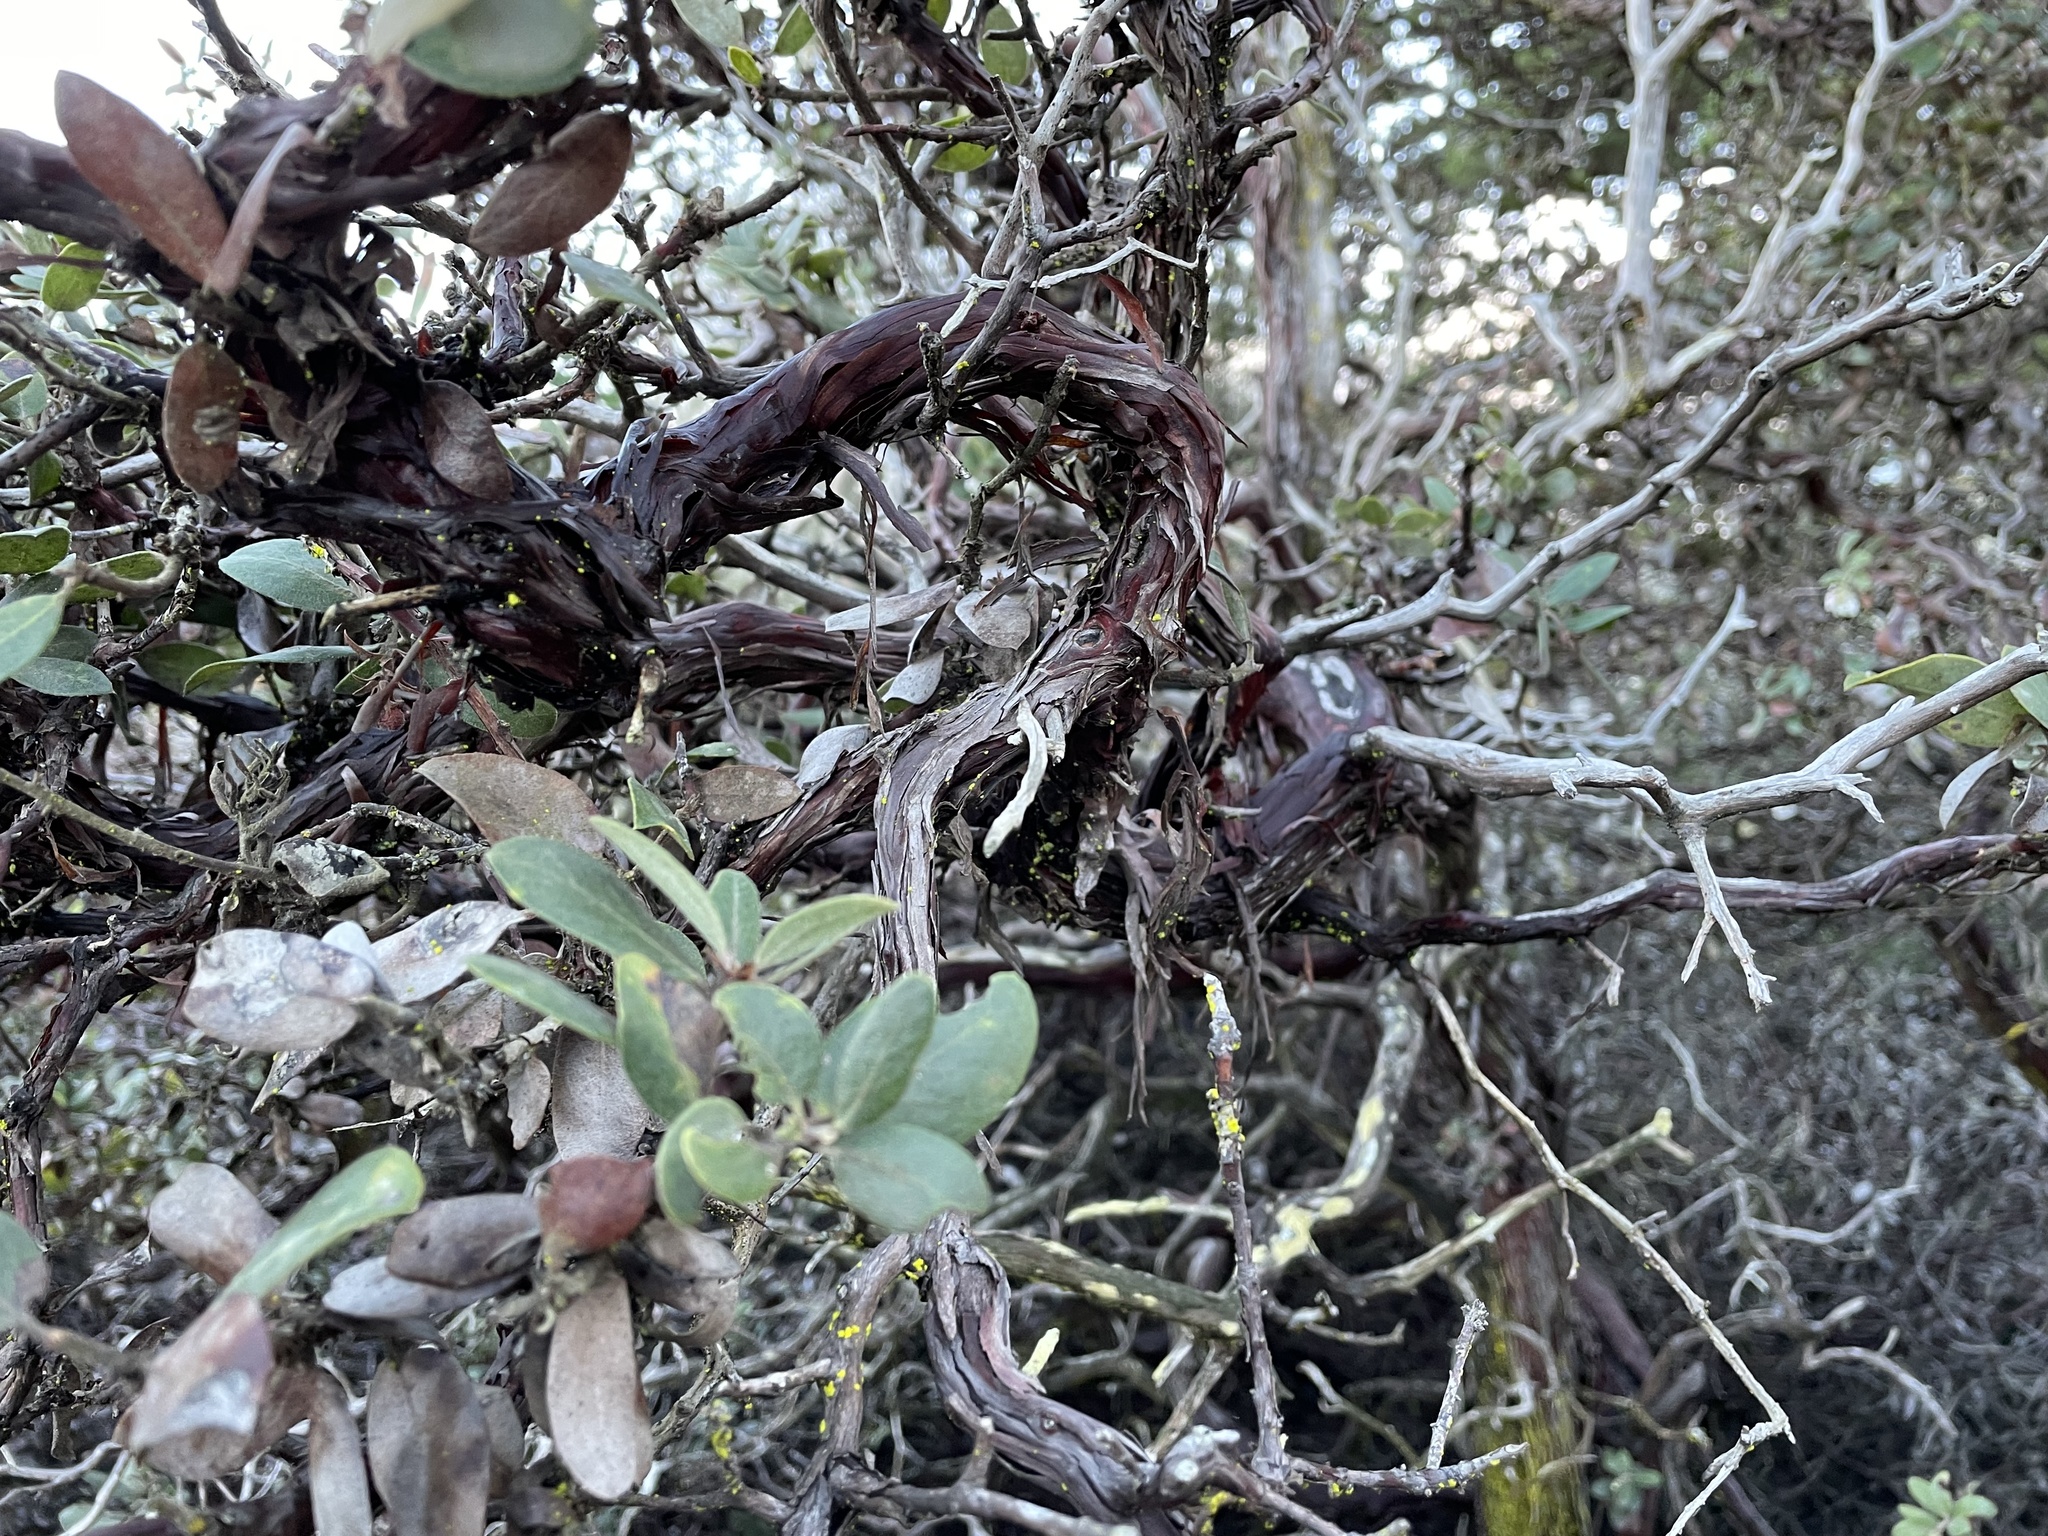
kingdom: Plantae
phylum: Tracheophyta
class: Magnoliopsida
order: Ericales
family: Ericaceae
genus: Arctostaphylos
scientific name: Arctostaphylos tomentosa
